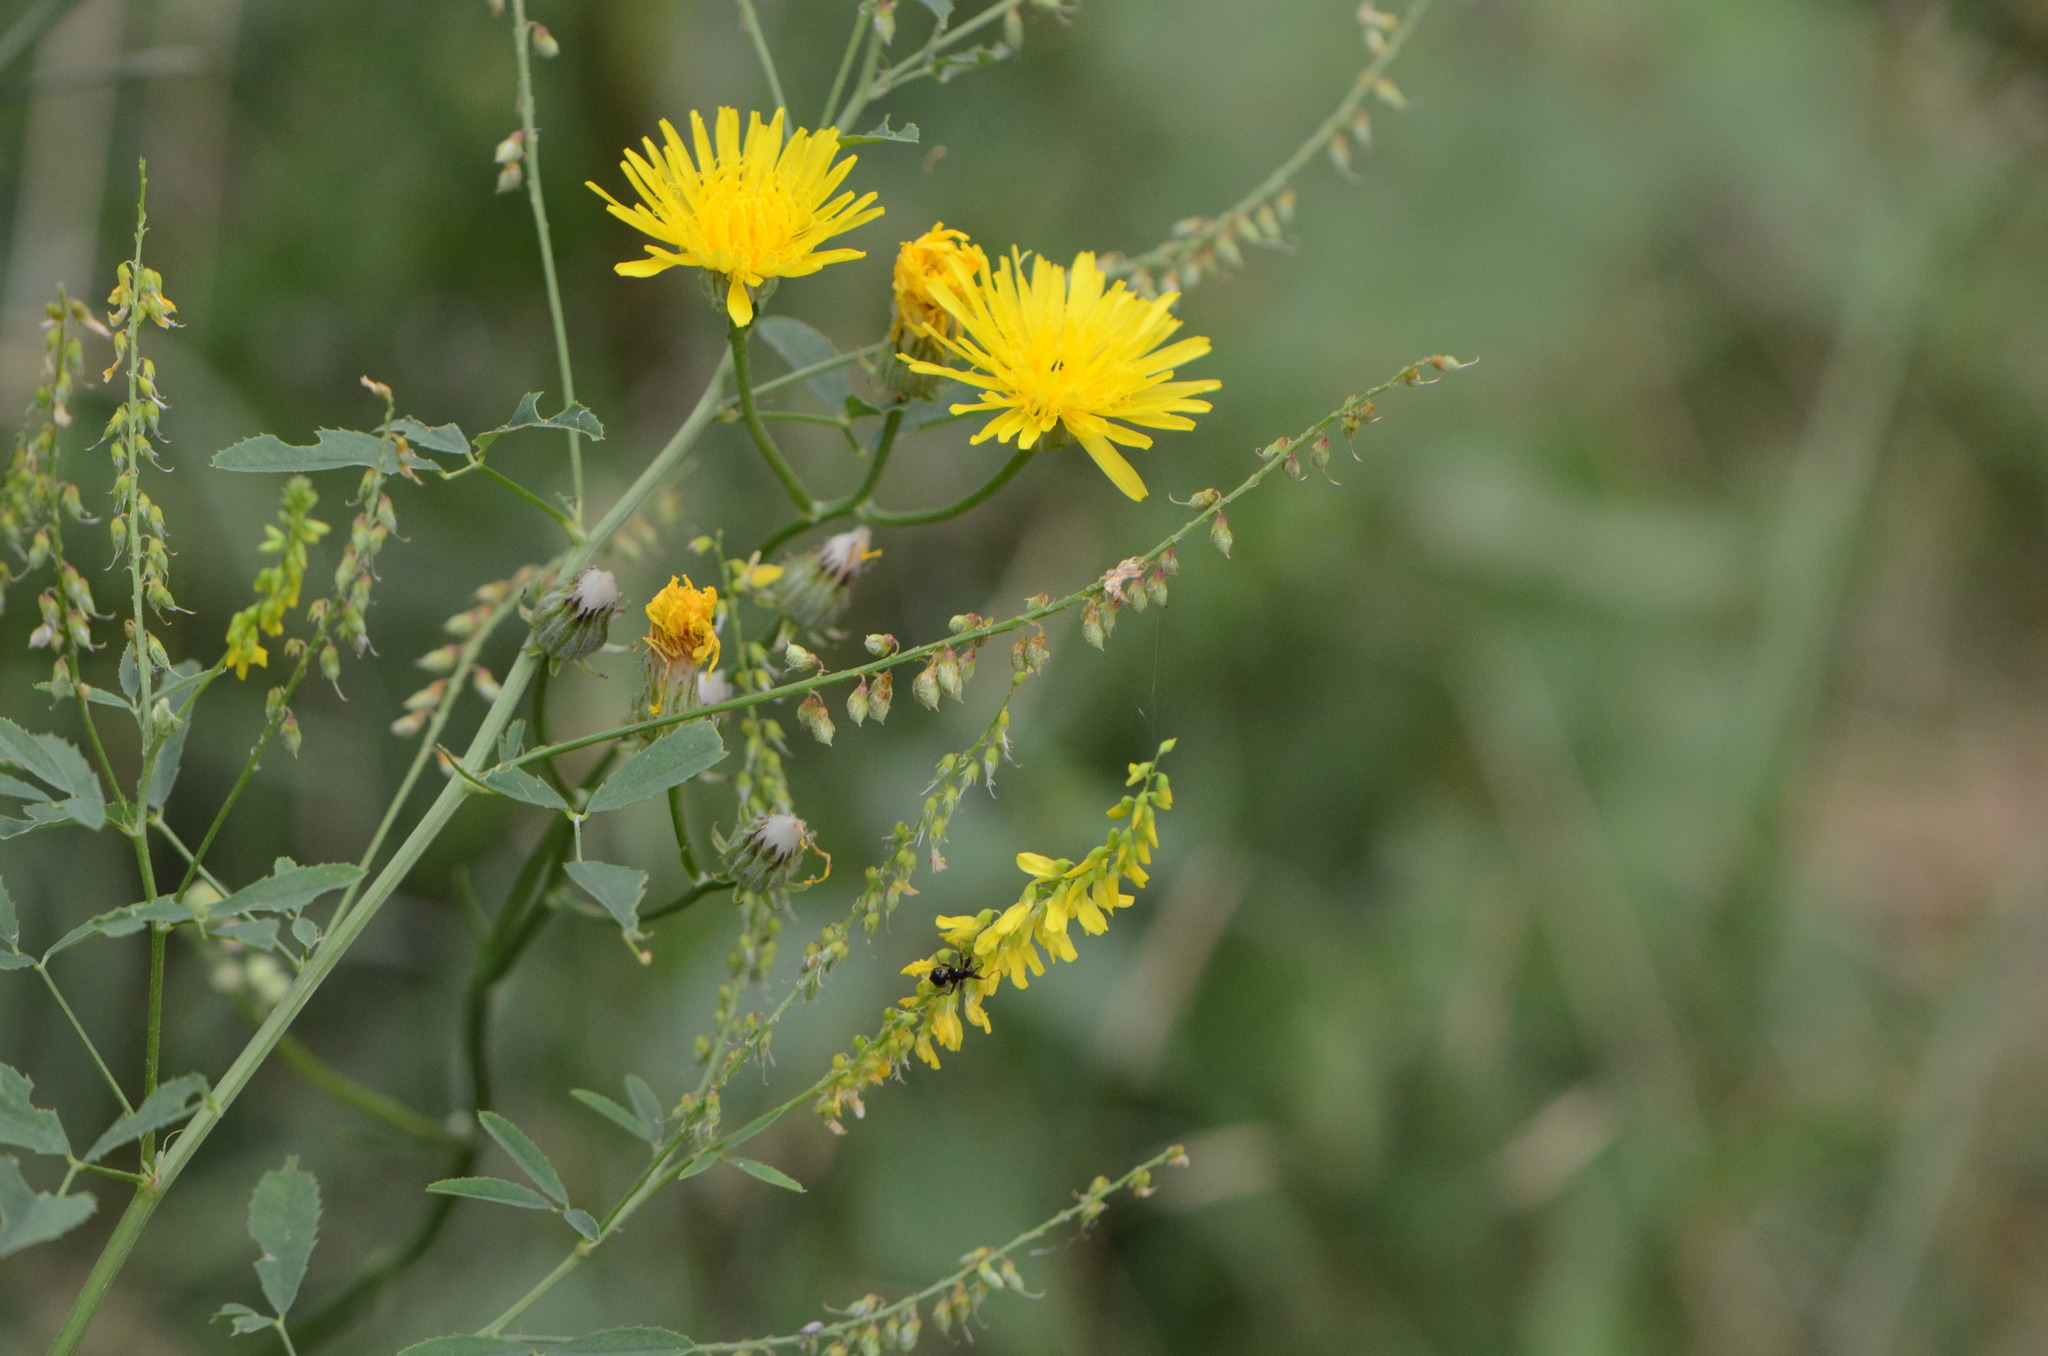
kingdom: Plantae
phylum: Tracheophyta
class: Magnoliopsida
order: Asterales
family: Asteraceae
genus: Crepis
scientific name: Crepis biennis
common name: Rough hawk's-beard
